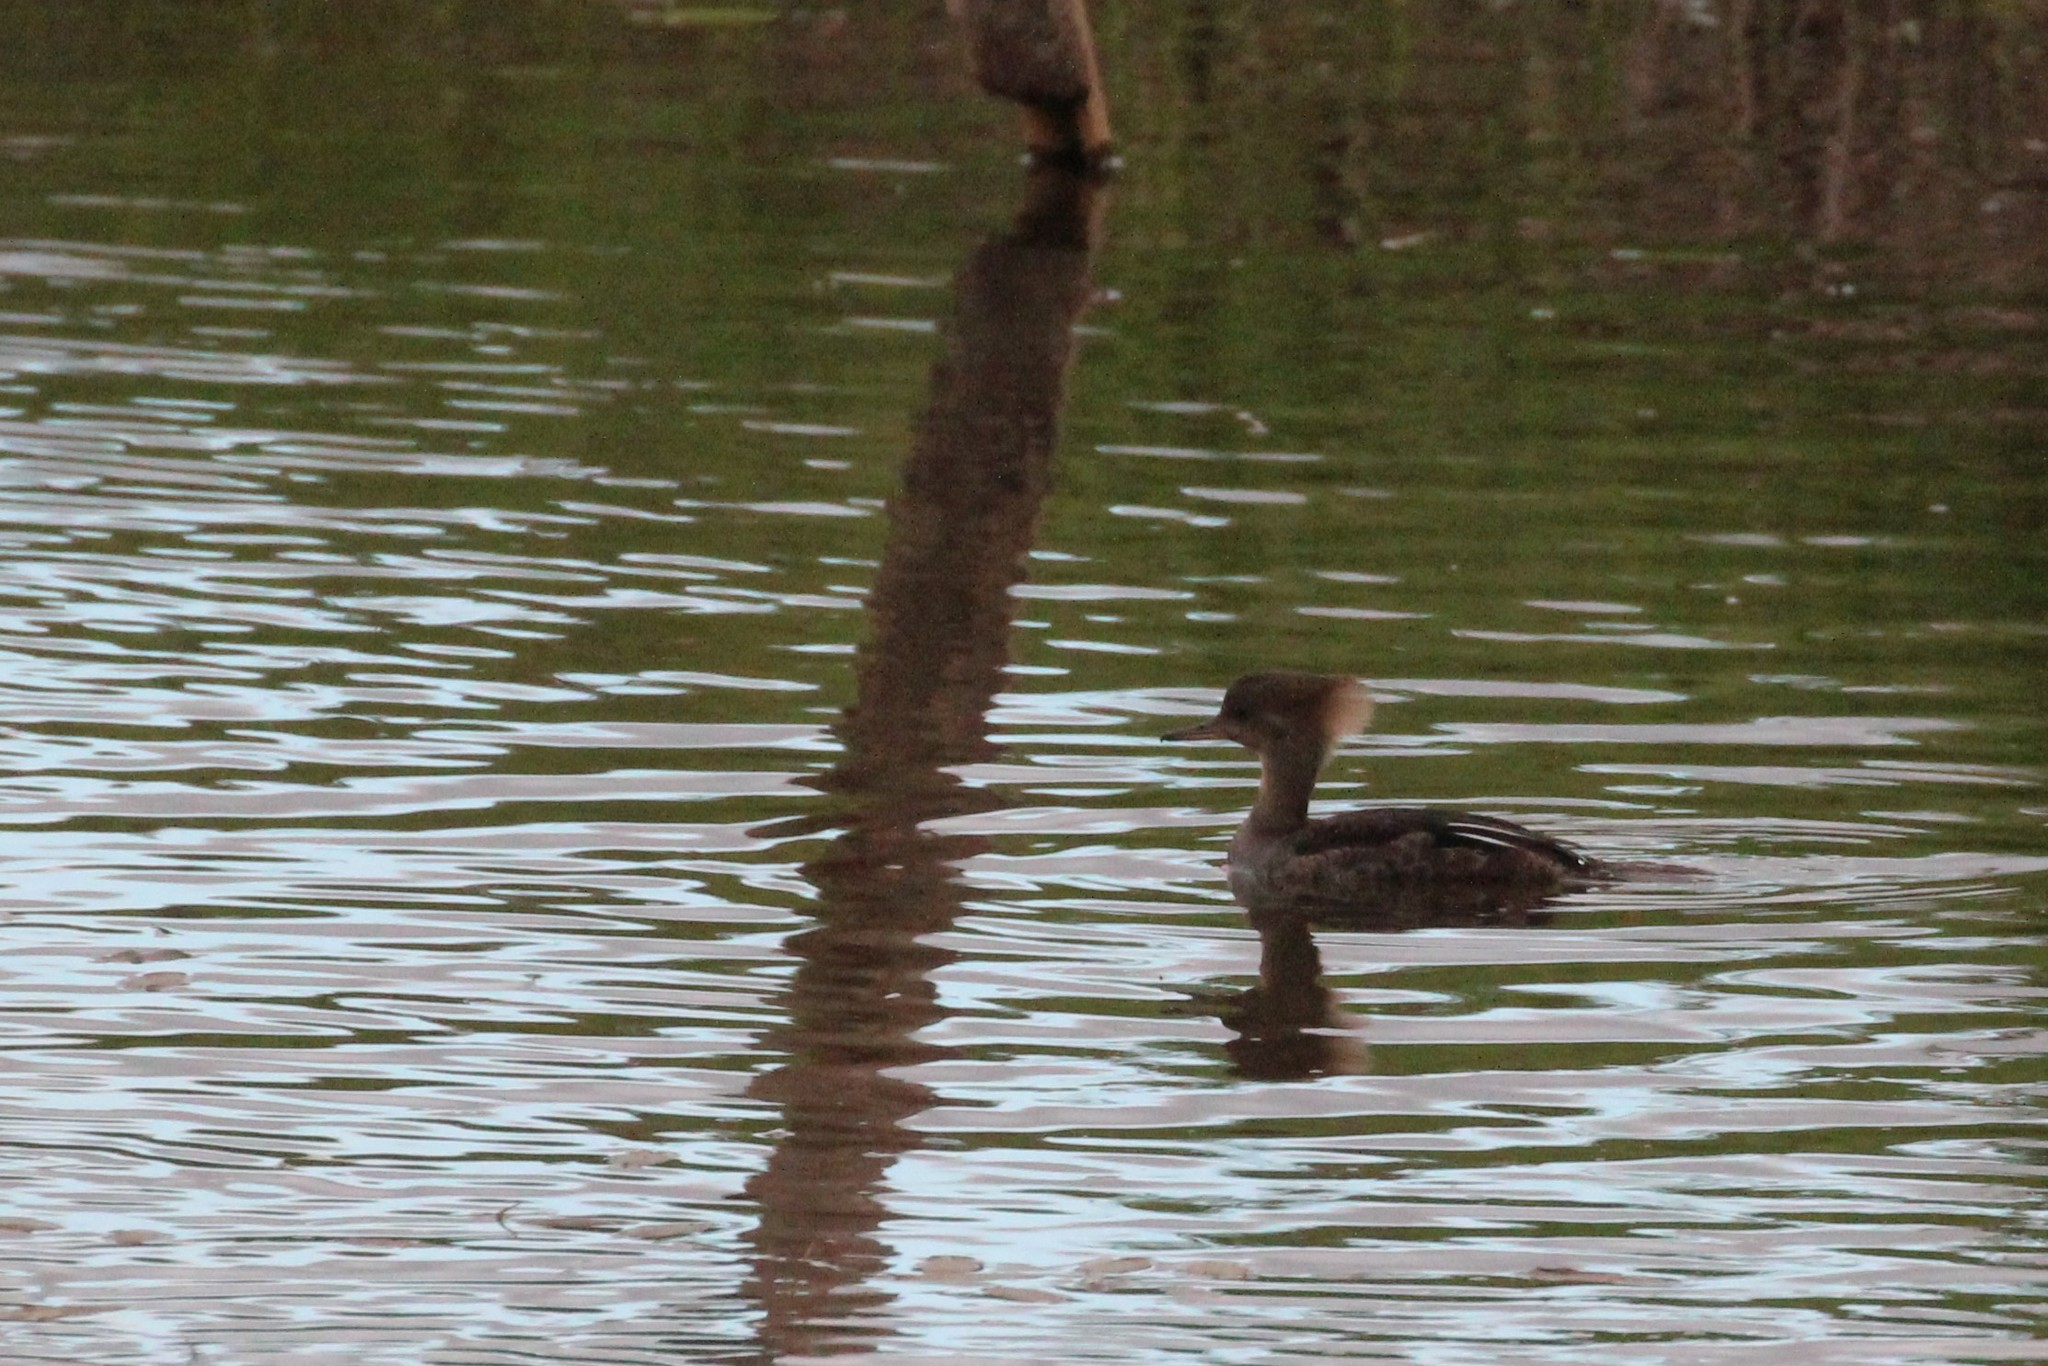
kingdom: Animalia
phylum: Chordata
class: Aves
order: Anseriformes
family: Anatidae
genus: Lophodytes
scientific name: Lophodytes cucullatus
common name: Hooded merganser
